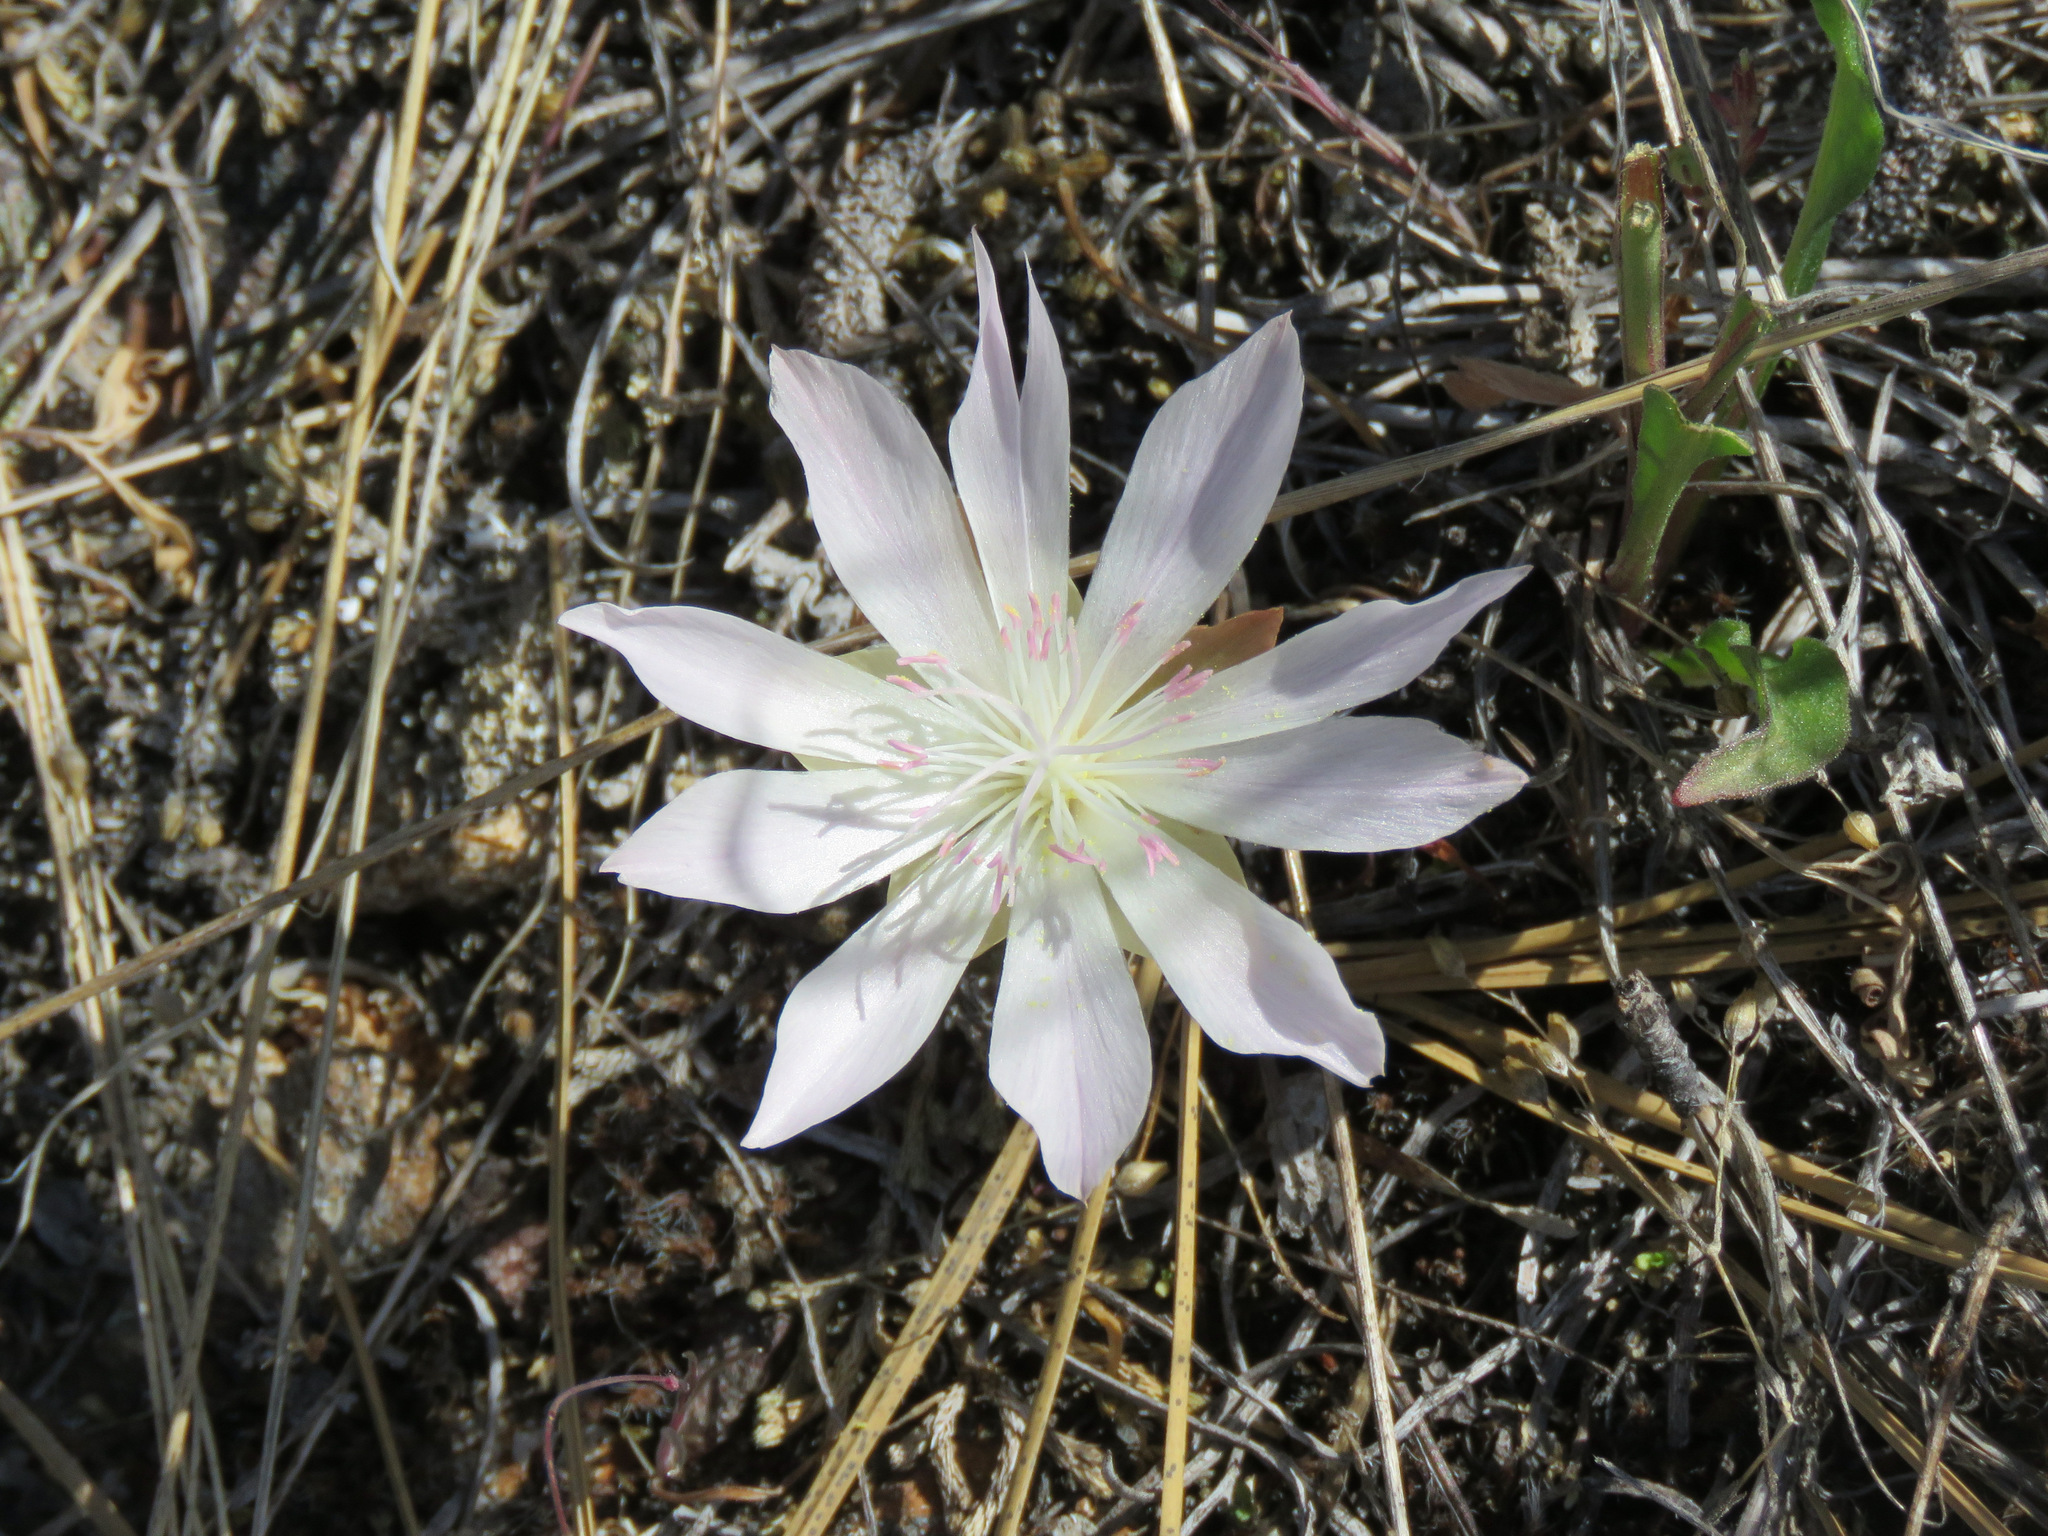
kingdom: Plantae
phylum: Tracheophyta
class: Magnoliopsida
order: Caryophyllales
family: Montiaceae
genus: Lewisia
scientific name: Lewisia rediviva
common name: Bitter-root
